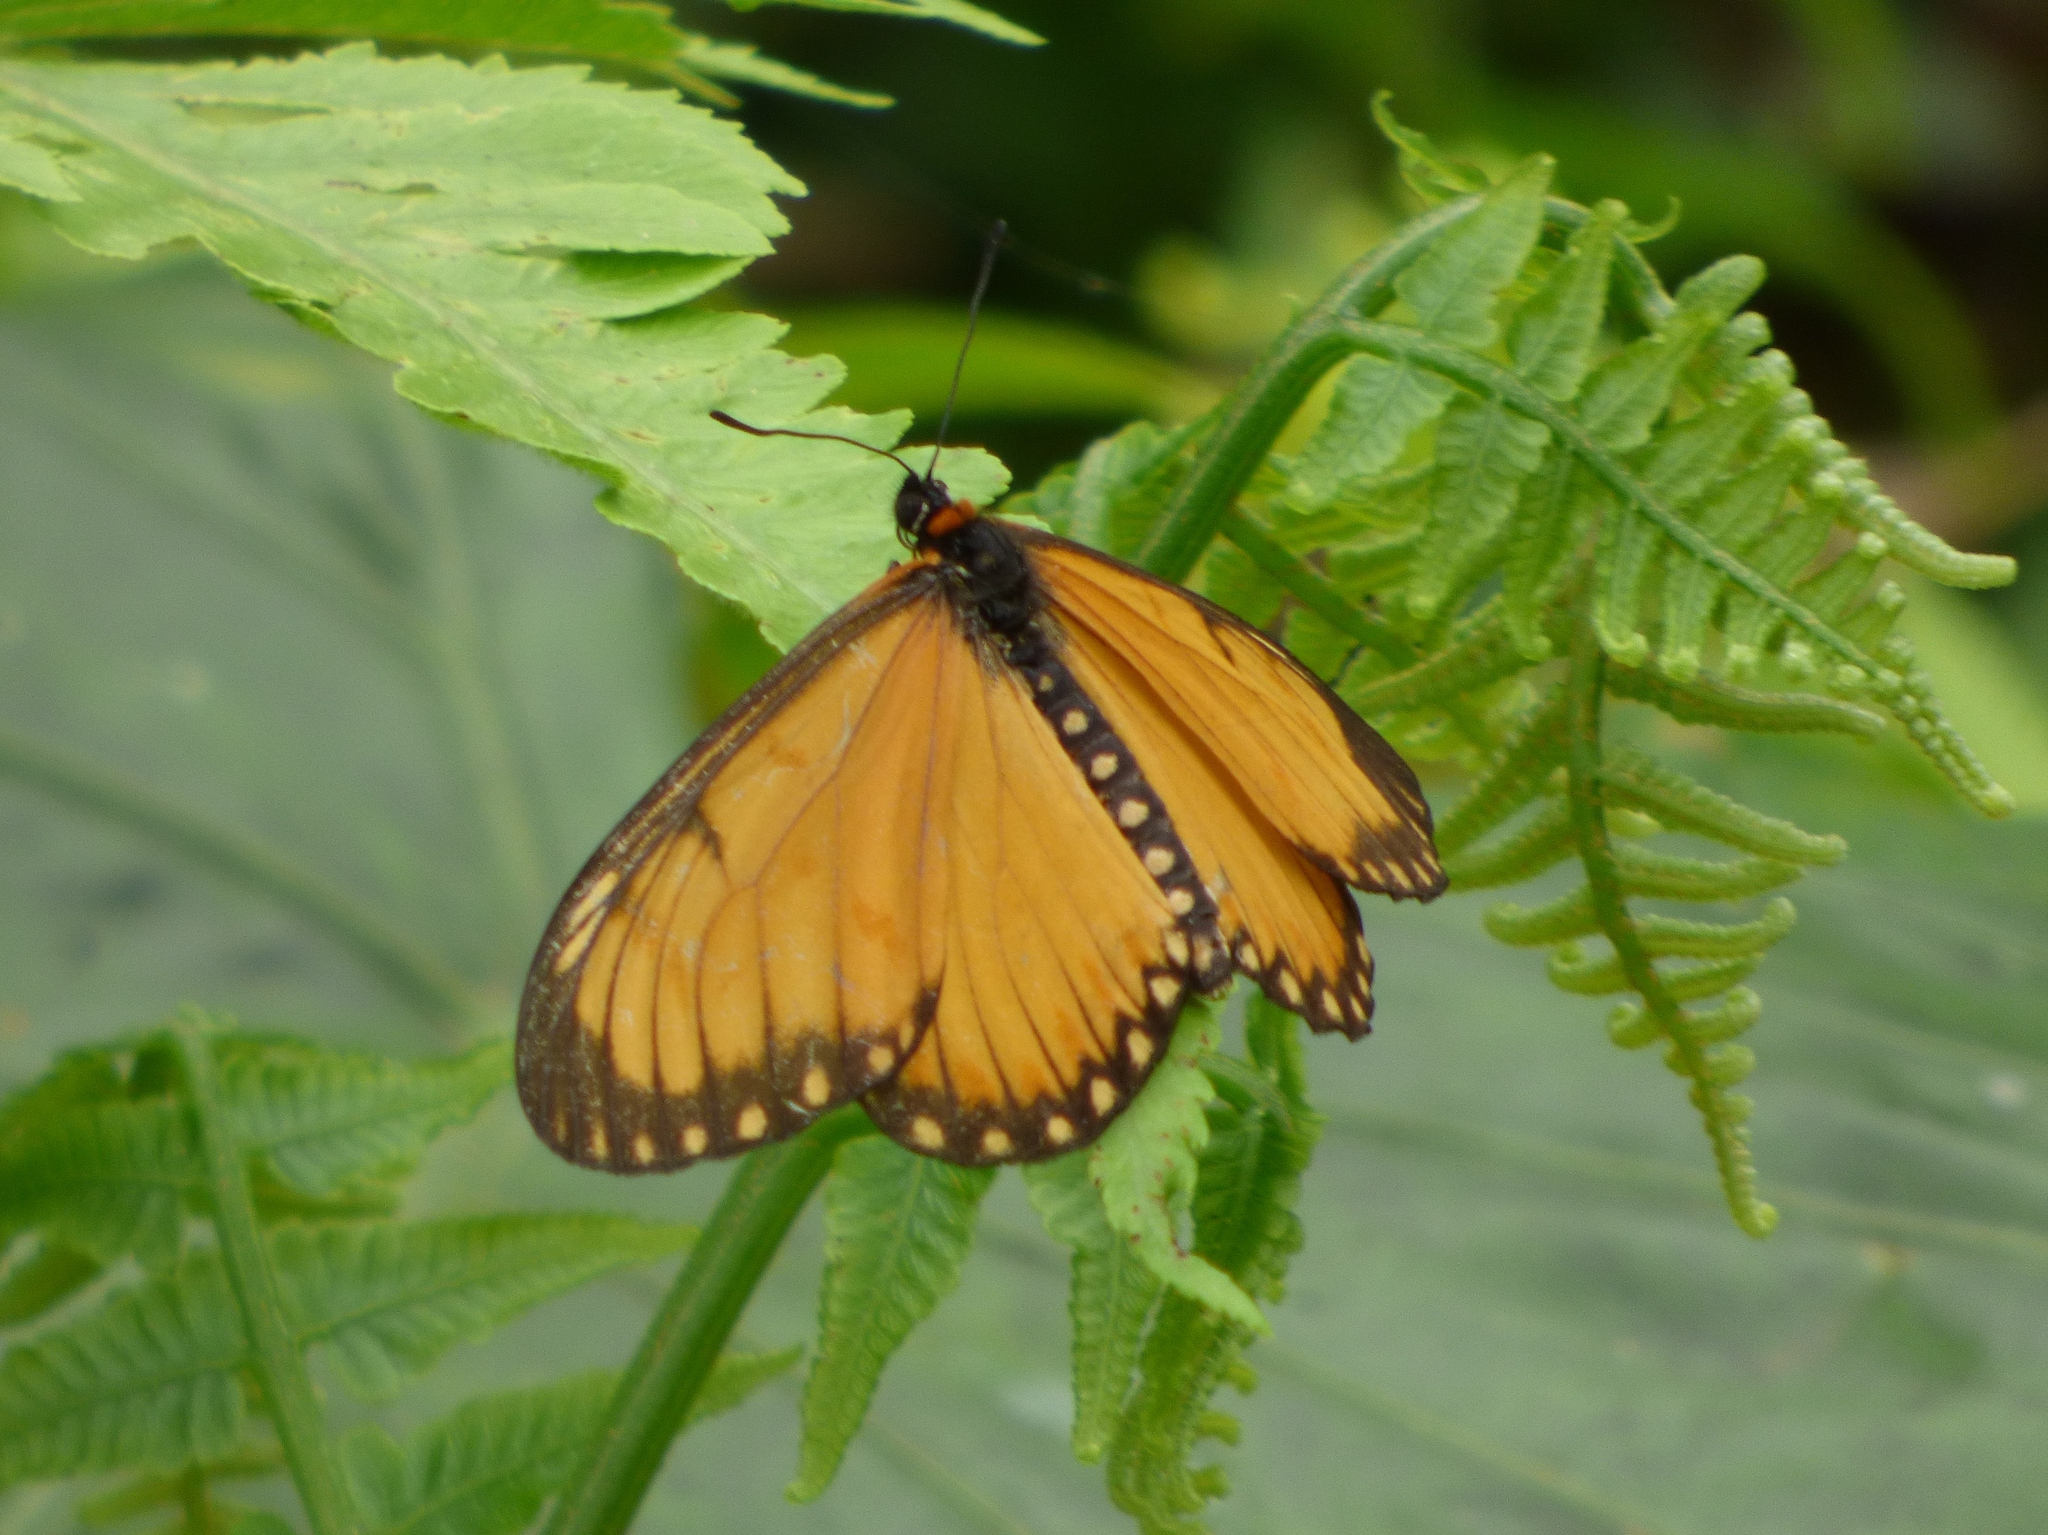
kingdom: Animalia
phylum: Arthropoda
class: Insecta
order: Lepidoptera
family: Nymphalidae
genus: Acraea
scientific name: Acraea Telchinia issoria
